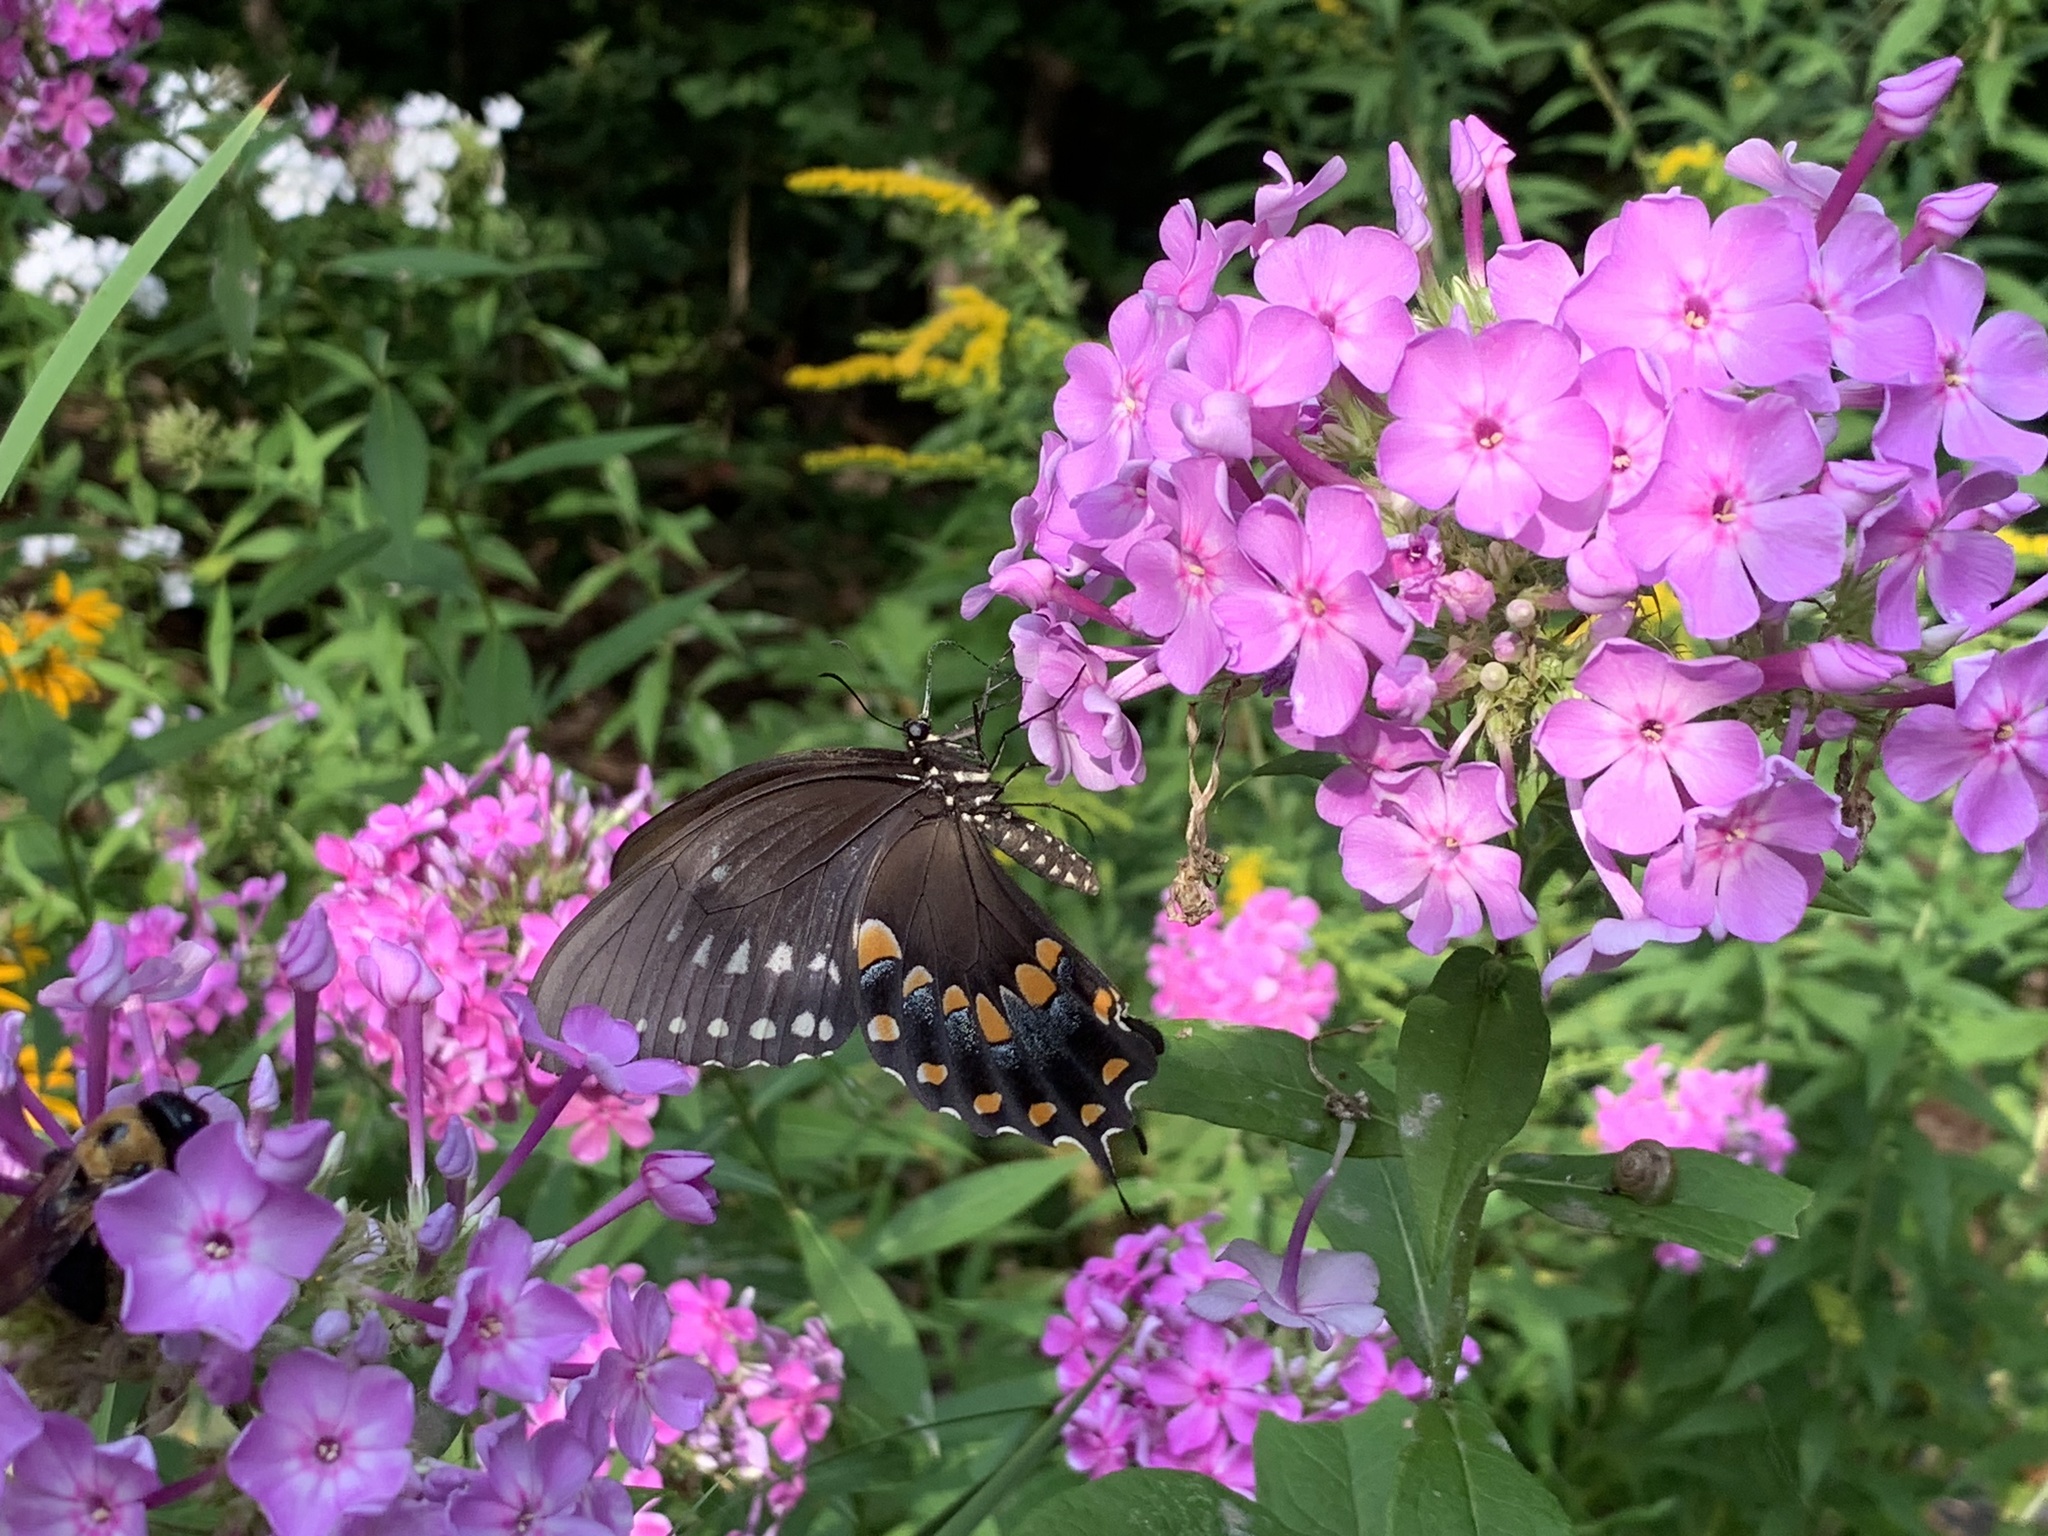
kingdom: Animalia
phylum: Arthropoda
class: Insecta
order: Lepidoptera
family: Papilionidae
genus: Papilio
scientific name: Papilio troilus
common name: Spicebush swallowtail
